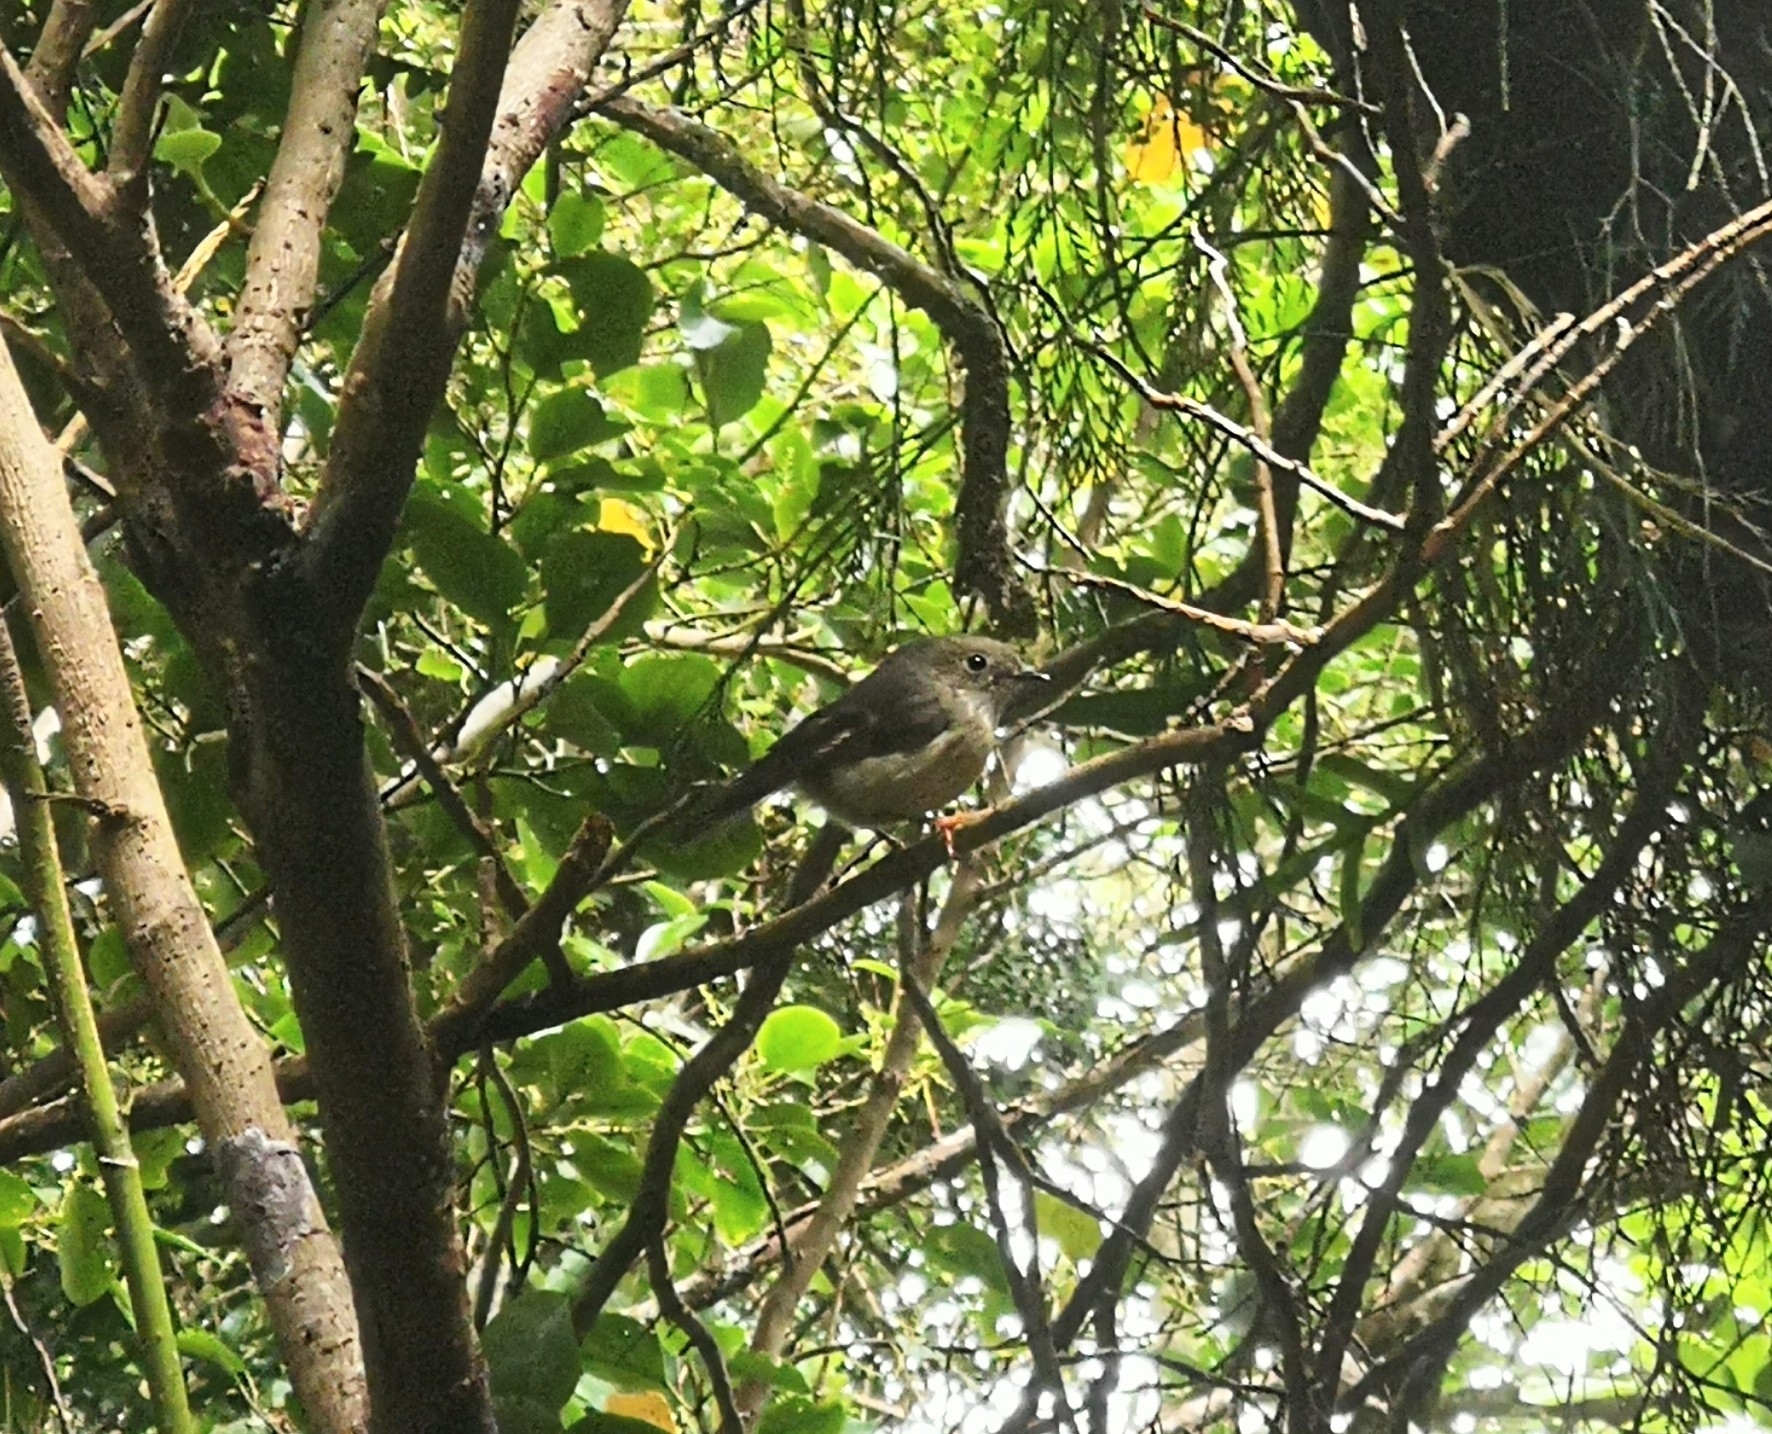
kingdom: Animalia
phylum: Chordata
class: Aves
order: Passeriformes
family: Petroicidae
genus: Petroica
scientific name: Petroica macrocephala
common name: Tomtit
